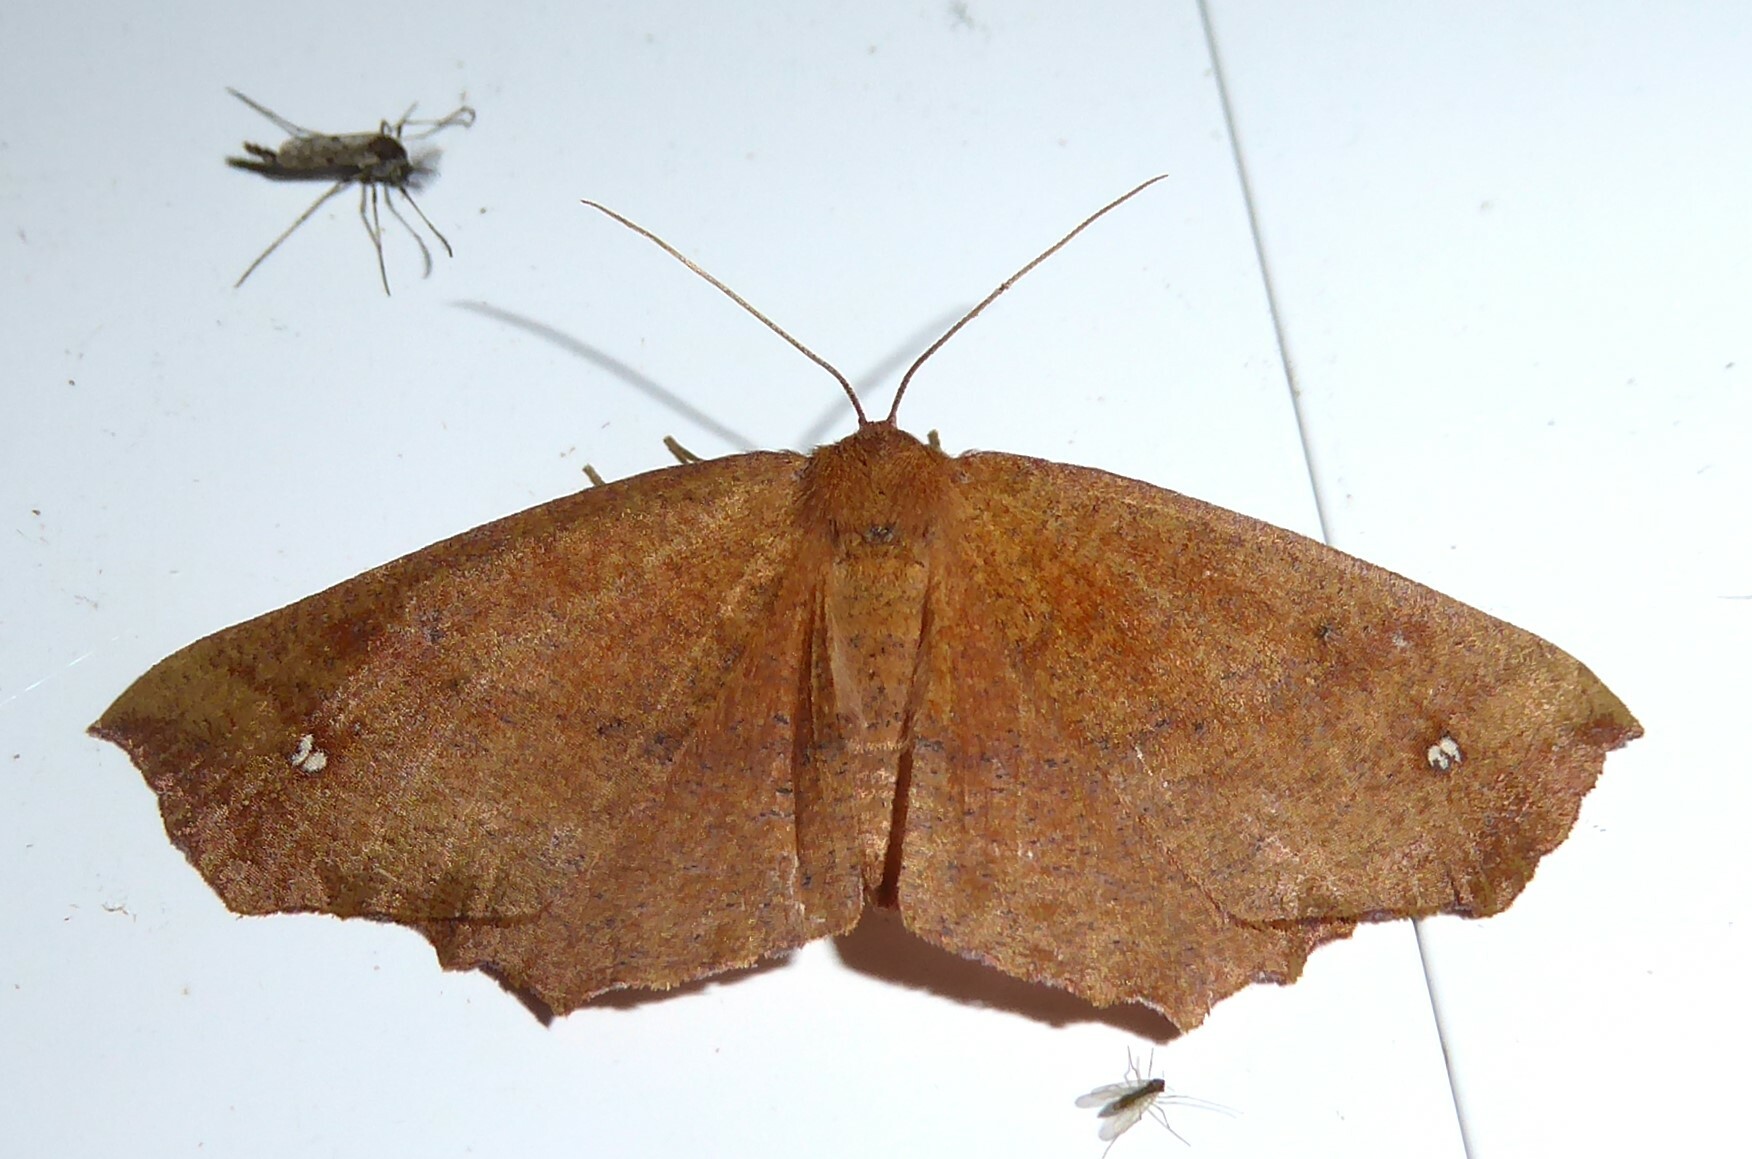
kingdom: Animalia
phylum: Arthropoda
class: Insecta
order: Lepidoptera
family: Geometridae
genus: Xyridacma
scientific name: Xyridacma ustaria
